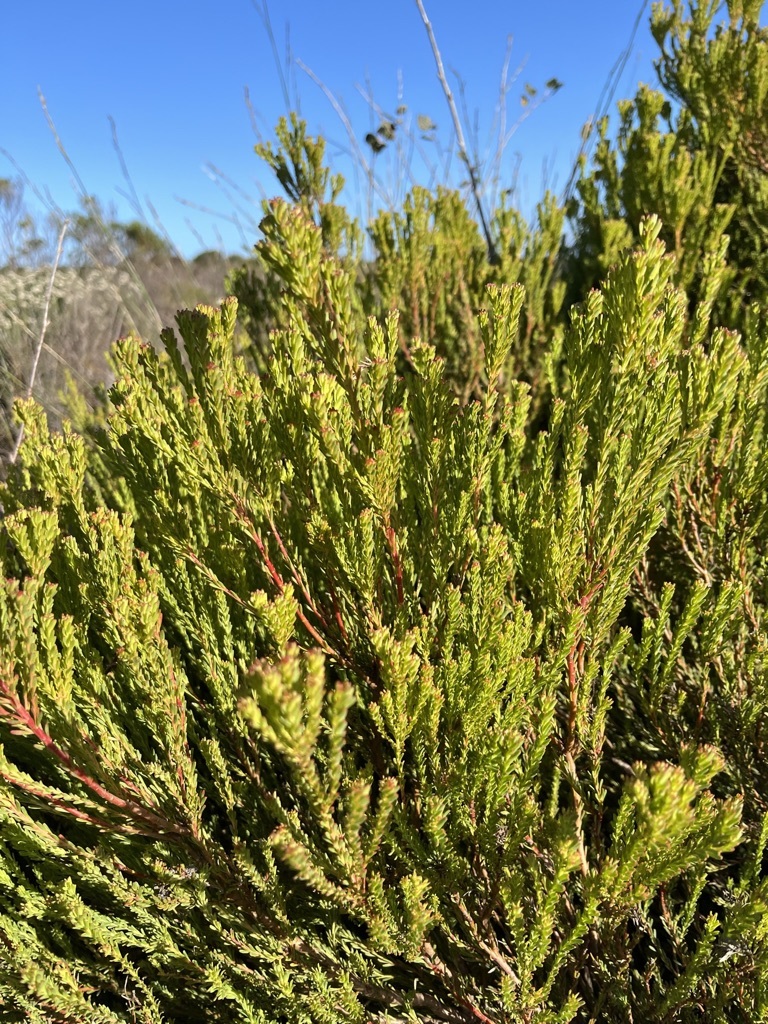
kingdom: Plantae
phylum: Tracheophyta
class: Magnoliopsida
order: Proteales
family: Proteaceae
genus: Leucadendron
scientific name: Leucadendron linifolium
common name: Line-leaf conebush
